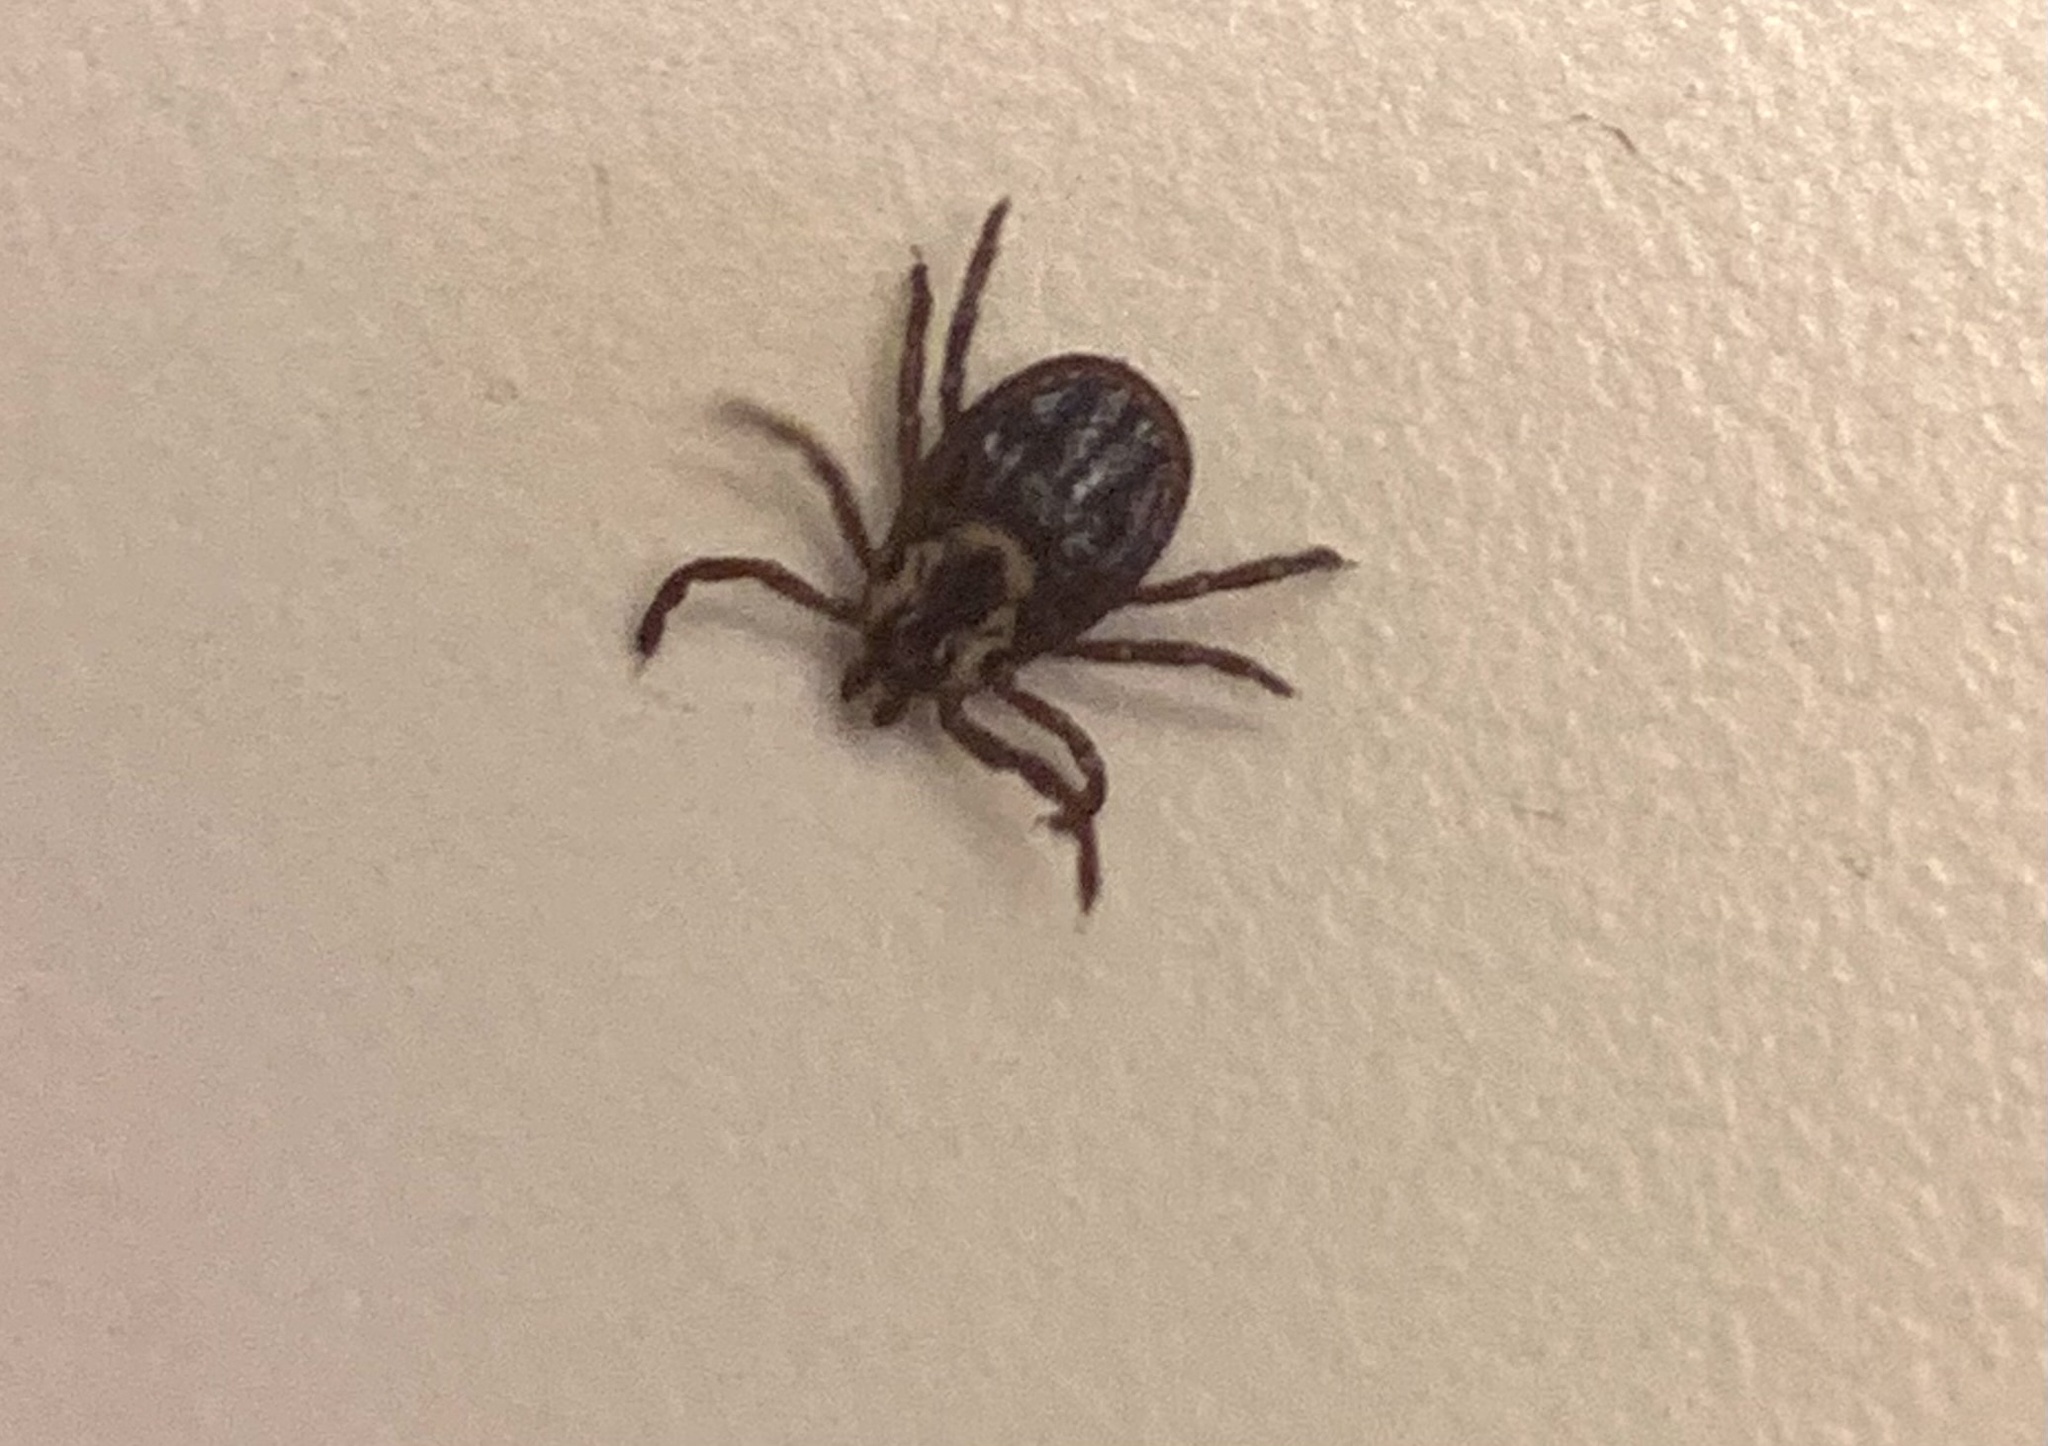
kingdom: Animalia
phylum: Arthropoda
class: Arachnida
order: Ixodida
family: Ixodidae
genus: Dermacentor
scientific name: Dermacentor variabilis
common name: American dog tick
